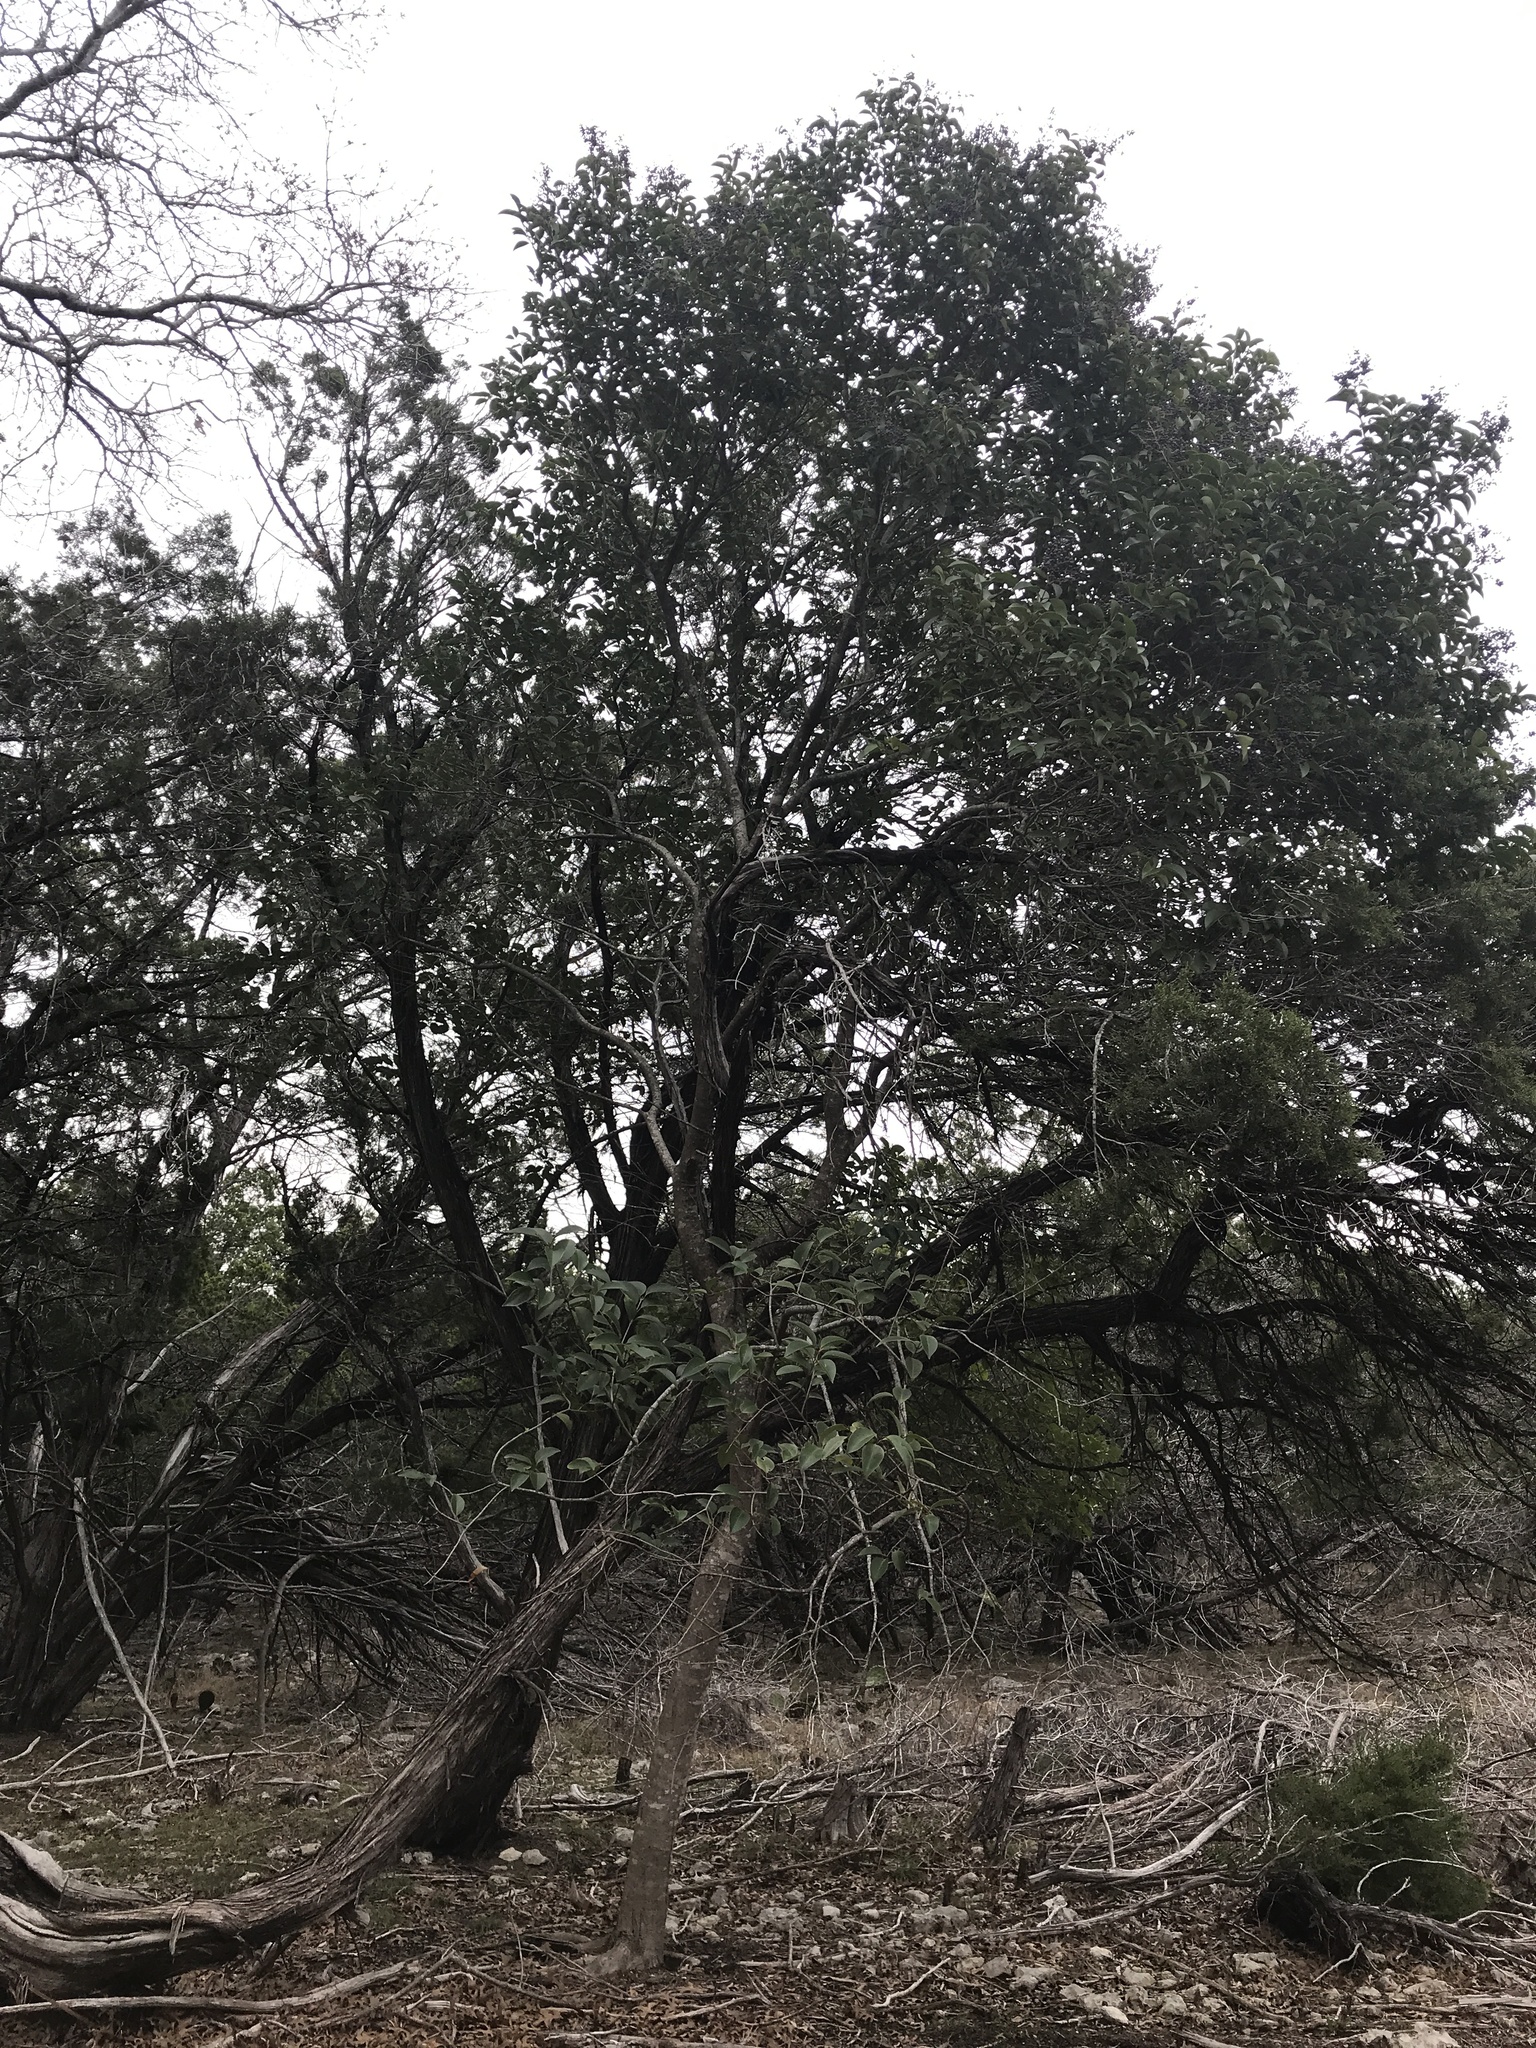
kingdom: Plantae
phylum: Tracheophyta
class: Magnoliopsida
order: Lamiales
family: Oleaceae
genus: Ligustrum
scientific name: Ligustrum lucidum
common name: Glossy privet
